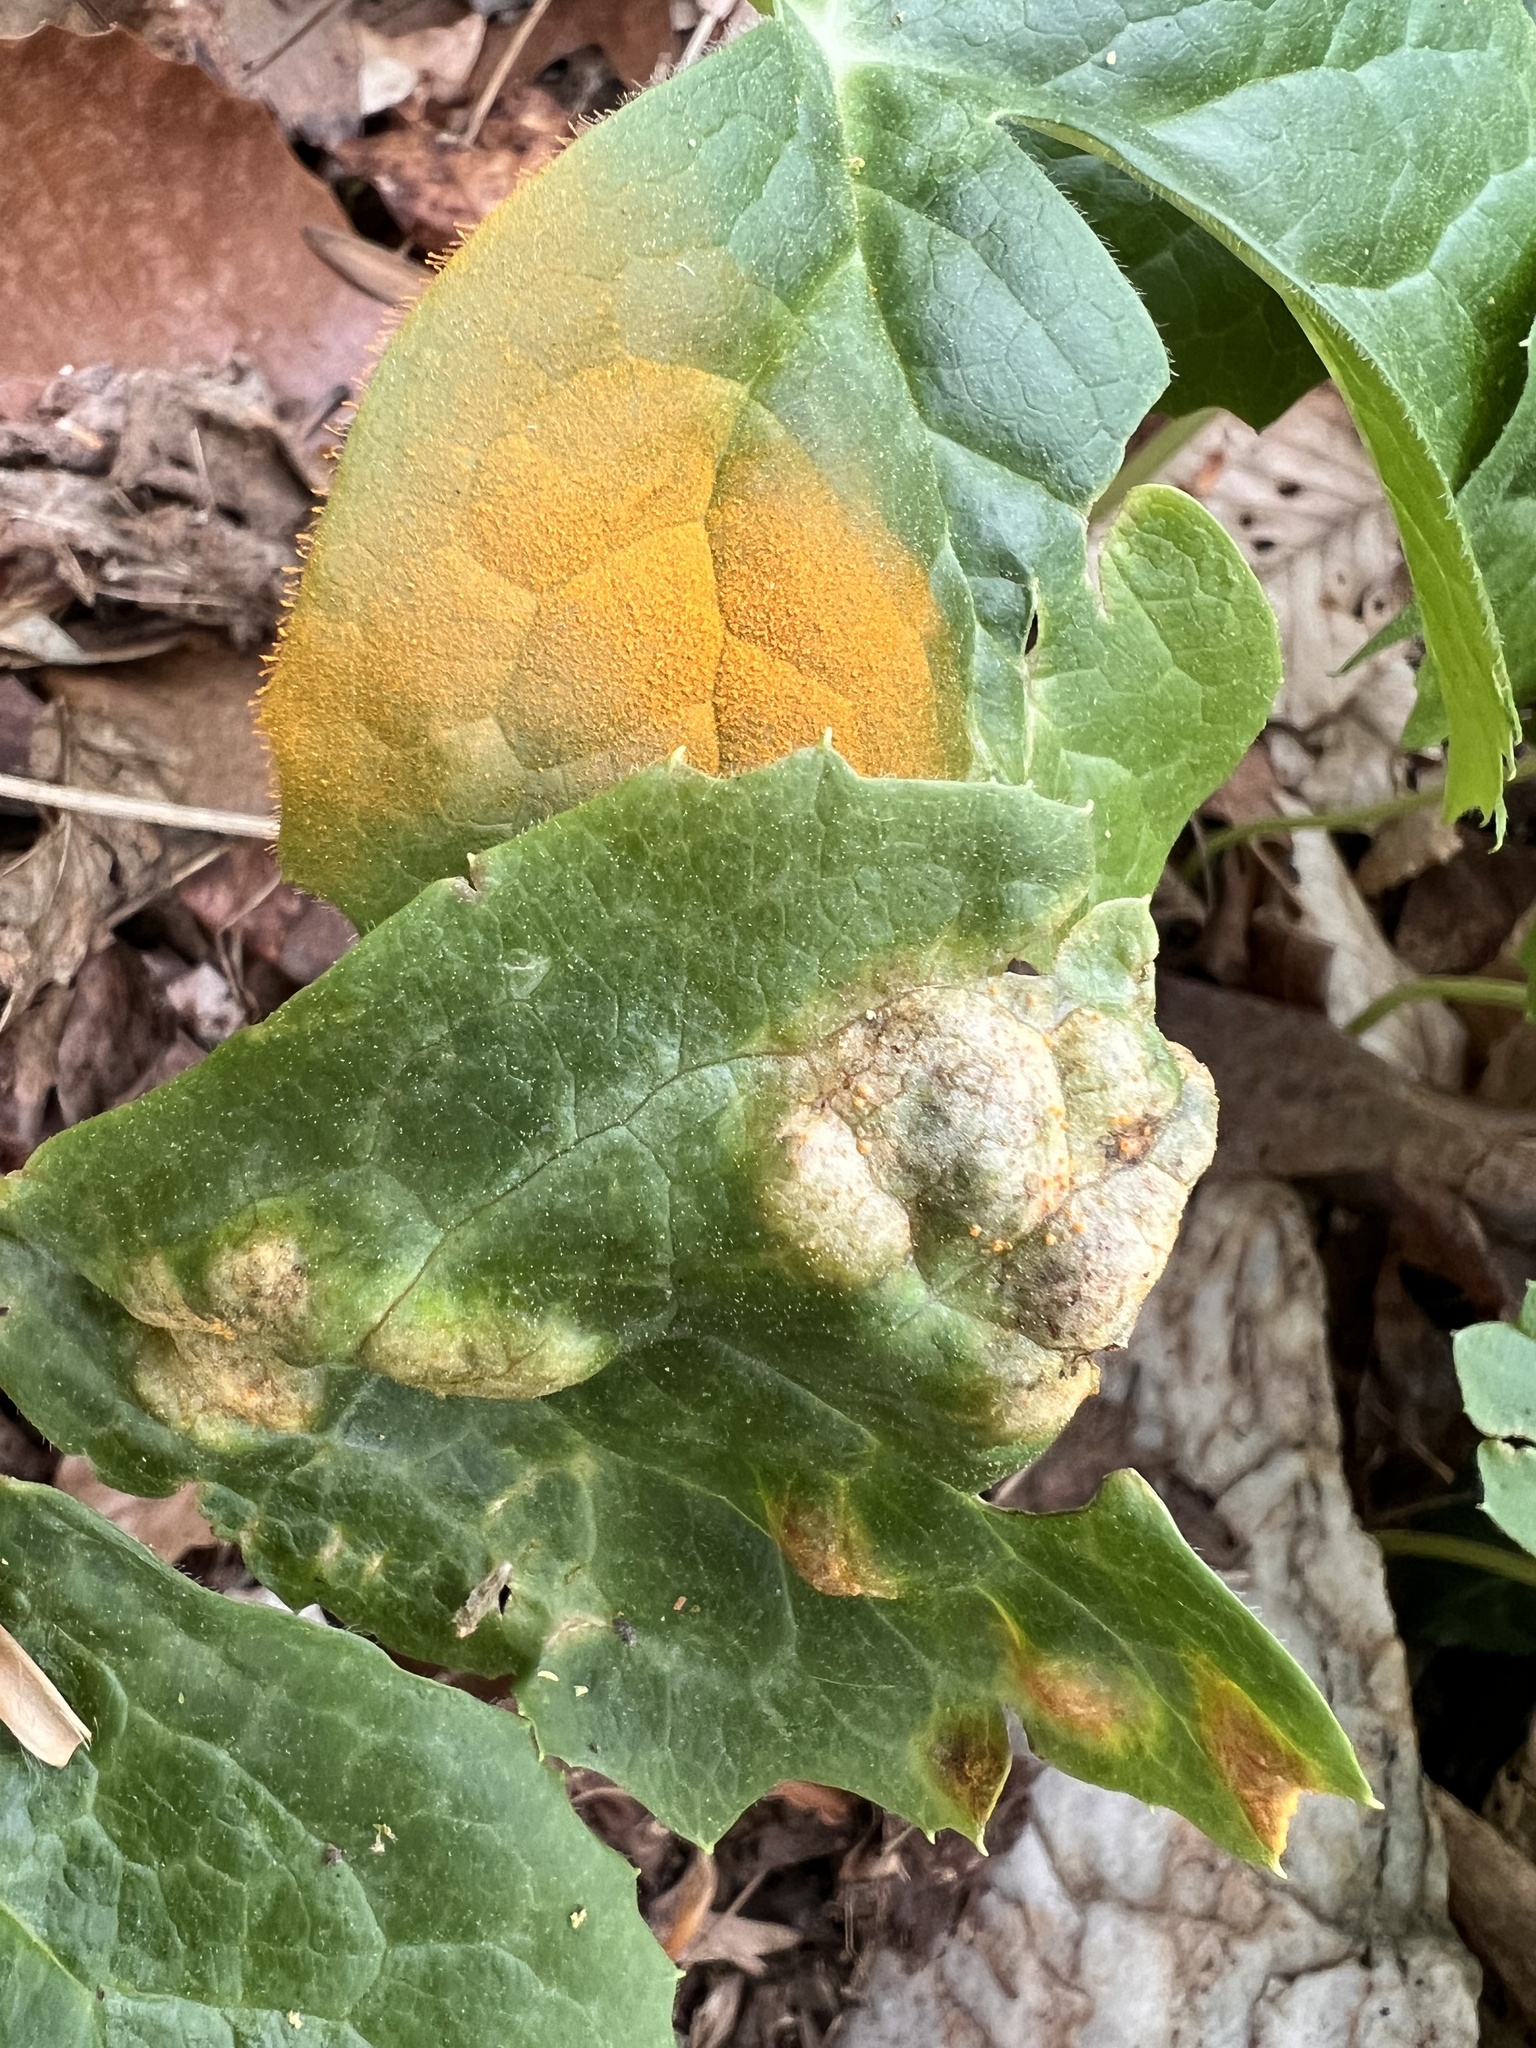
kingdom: Fungi
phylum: Basidiomycota
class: Pucciniomycetes
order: Pucciniales
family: Pucciniaceae
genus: Puccinia
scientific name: Puccinia podophylli
